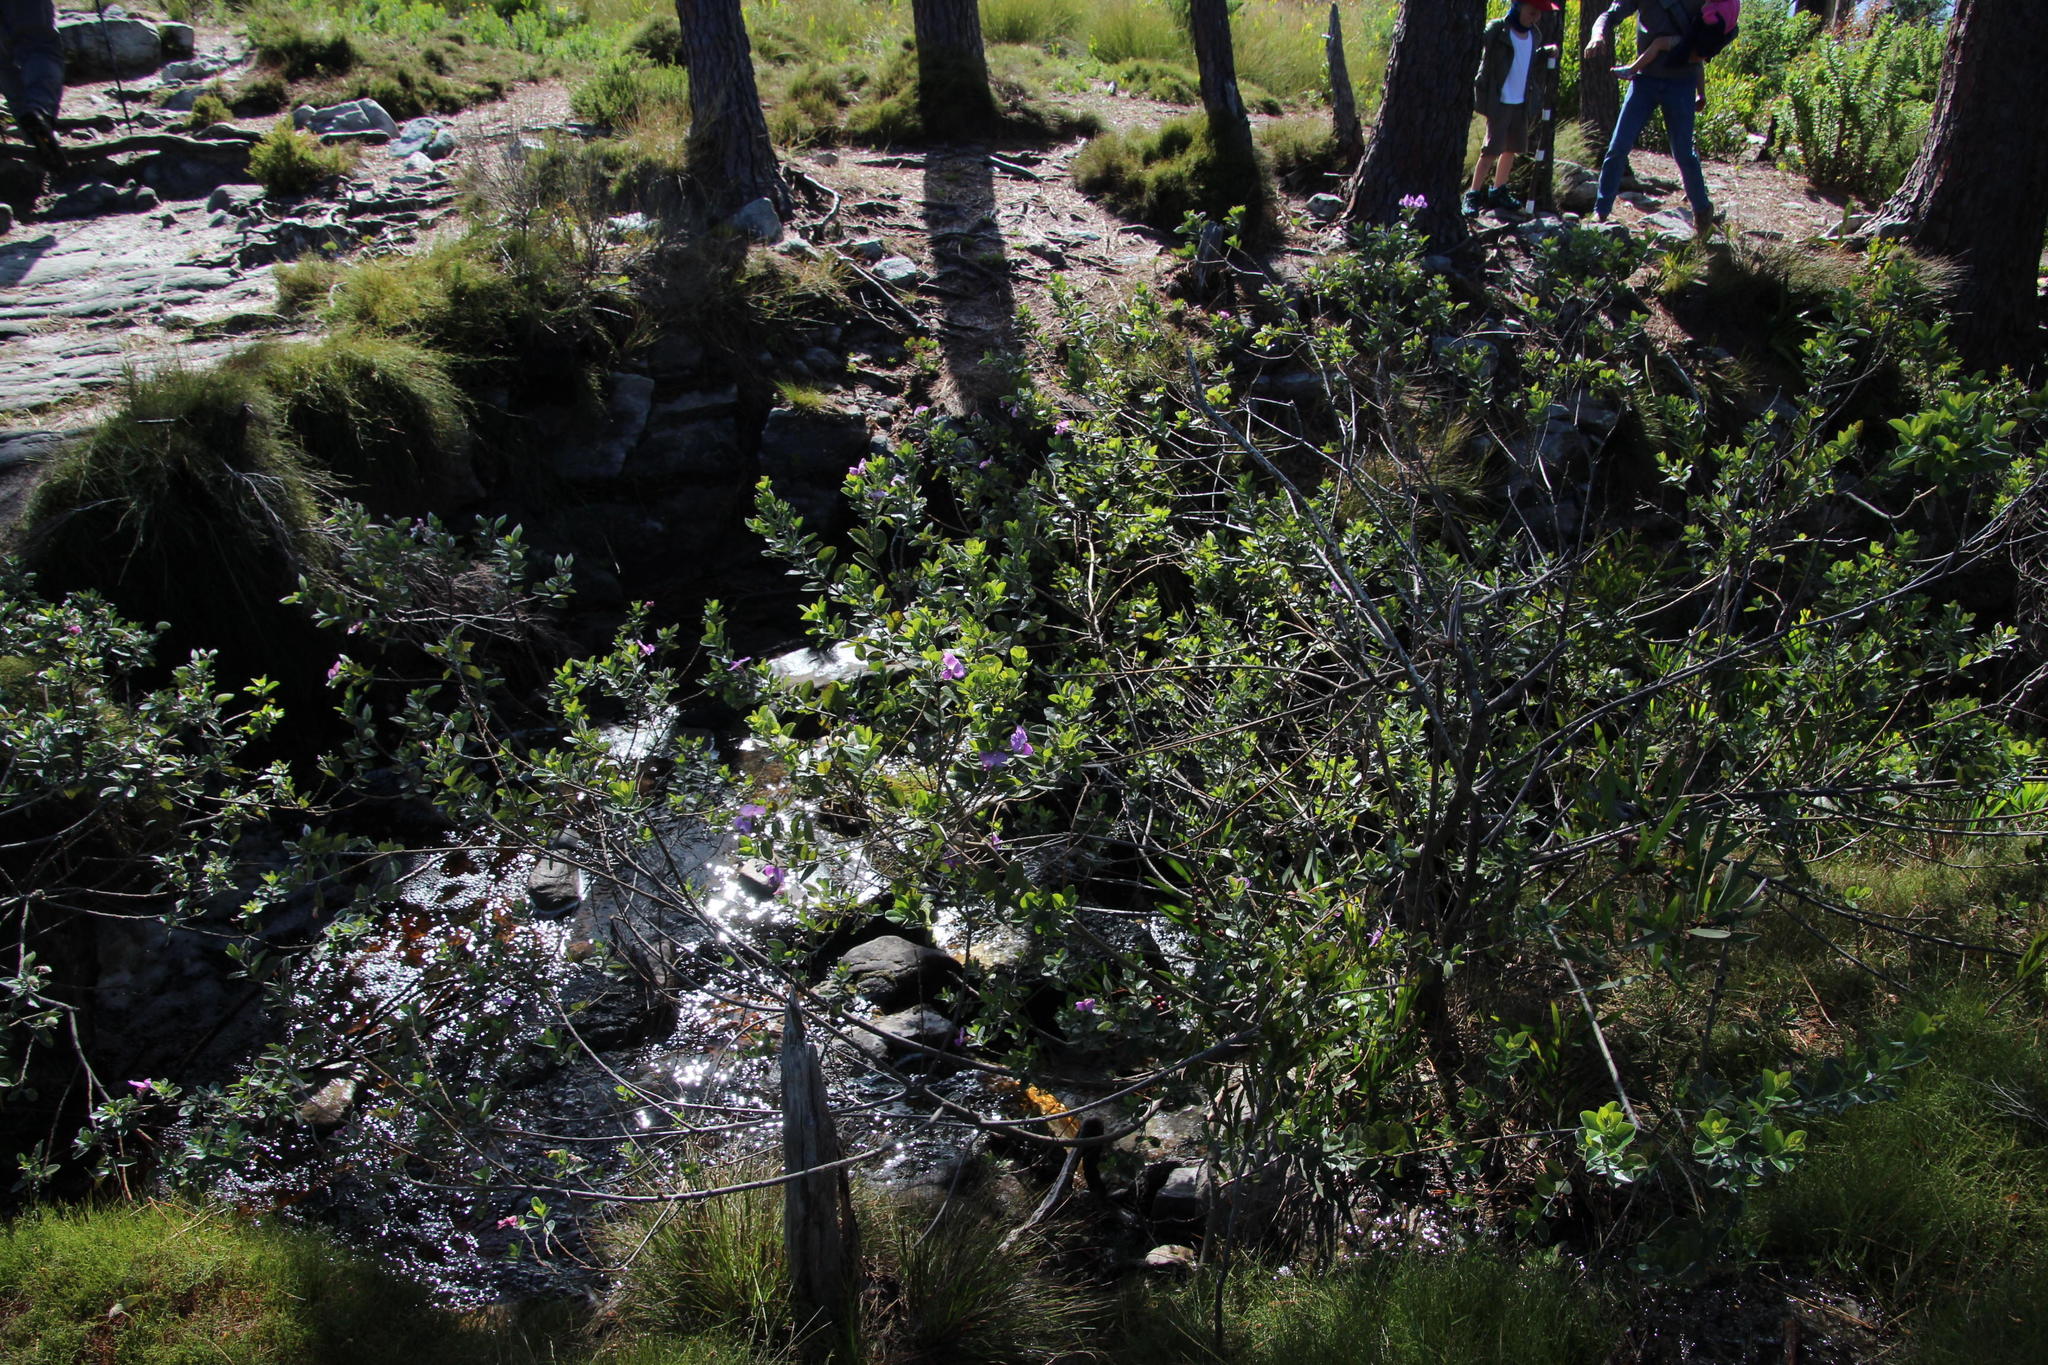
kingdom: Plantae
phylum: Tracheophyta
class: Magnoliopsida
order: Fabales
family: Fabaceae
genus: Podalyria
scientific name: Podalyria calyptrata
